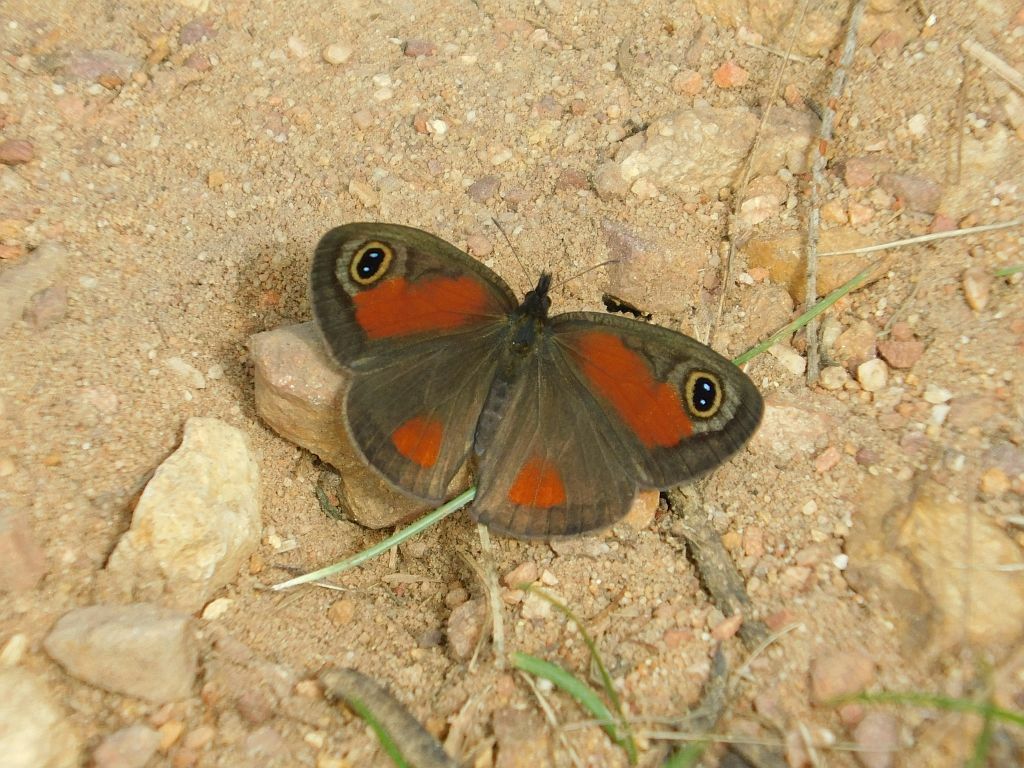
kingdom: Animalia
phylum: Arthropoda
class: Insecta
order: Lepidoptera
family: Nymphalidae
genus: Pseudonympha
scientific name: Pseudonympha detecta
